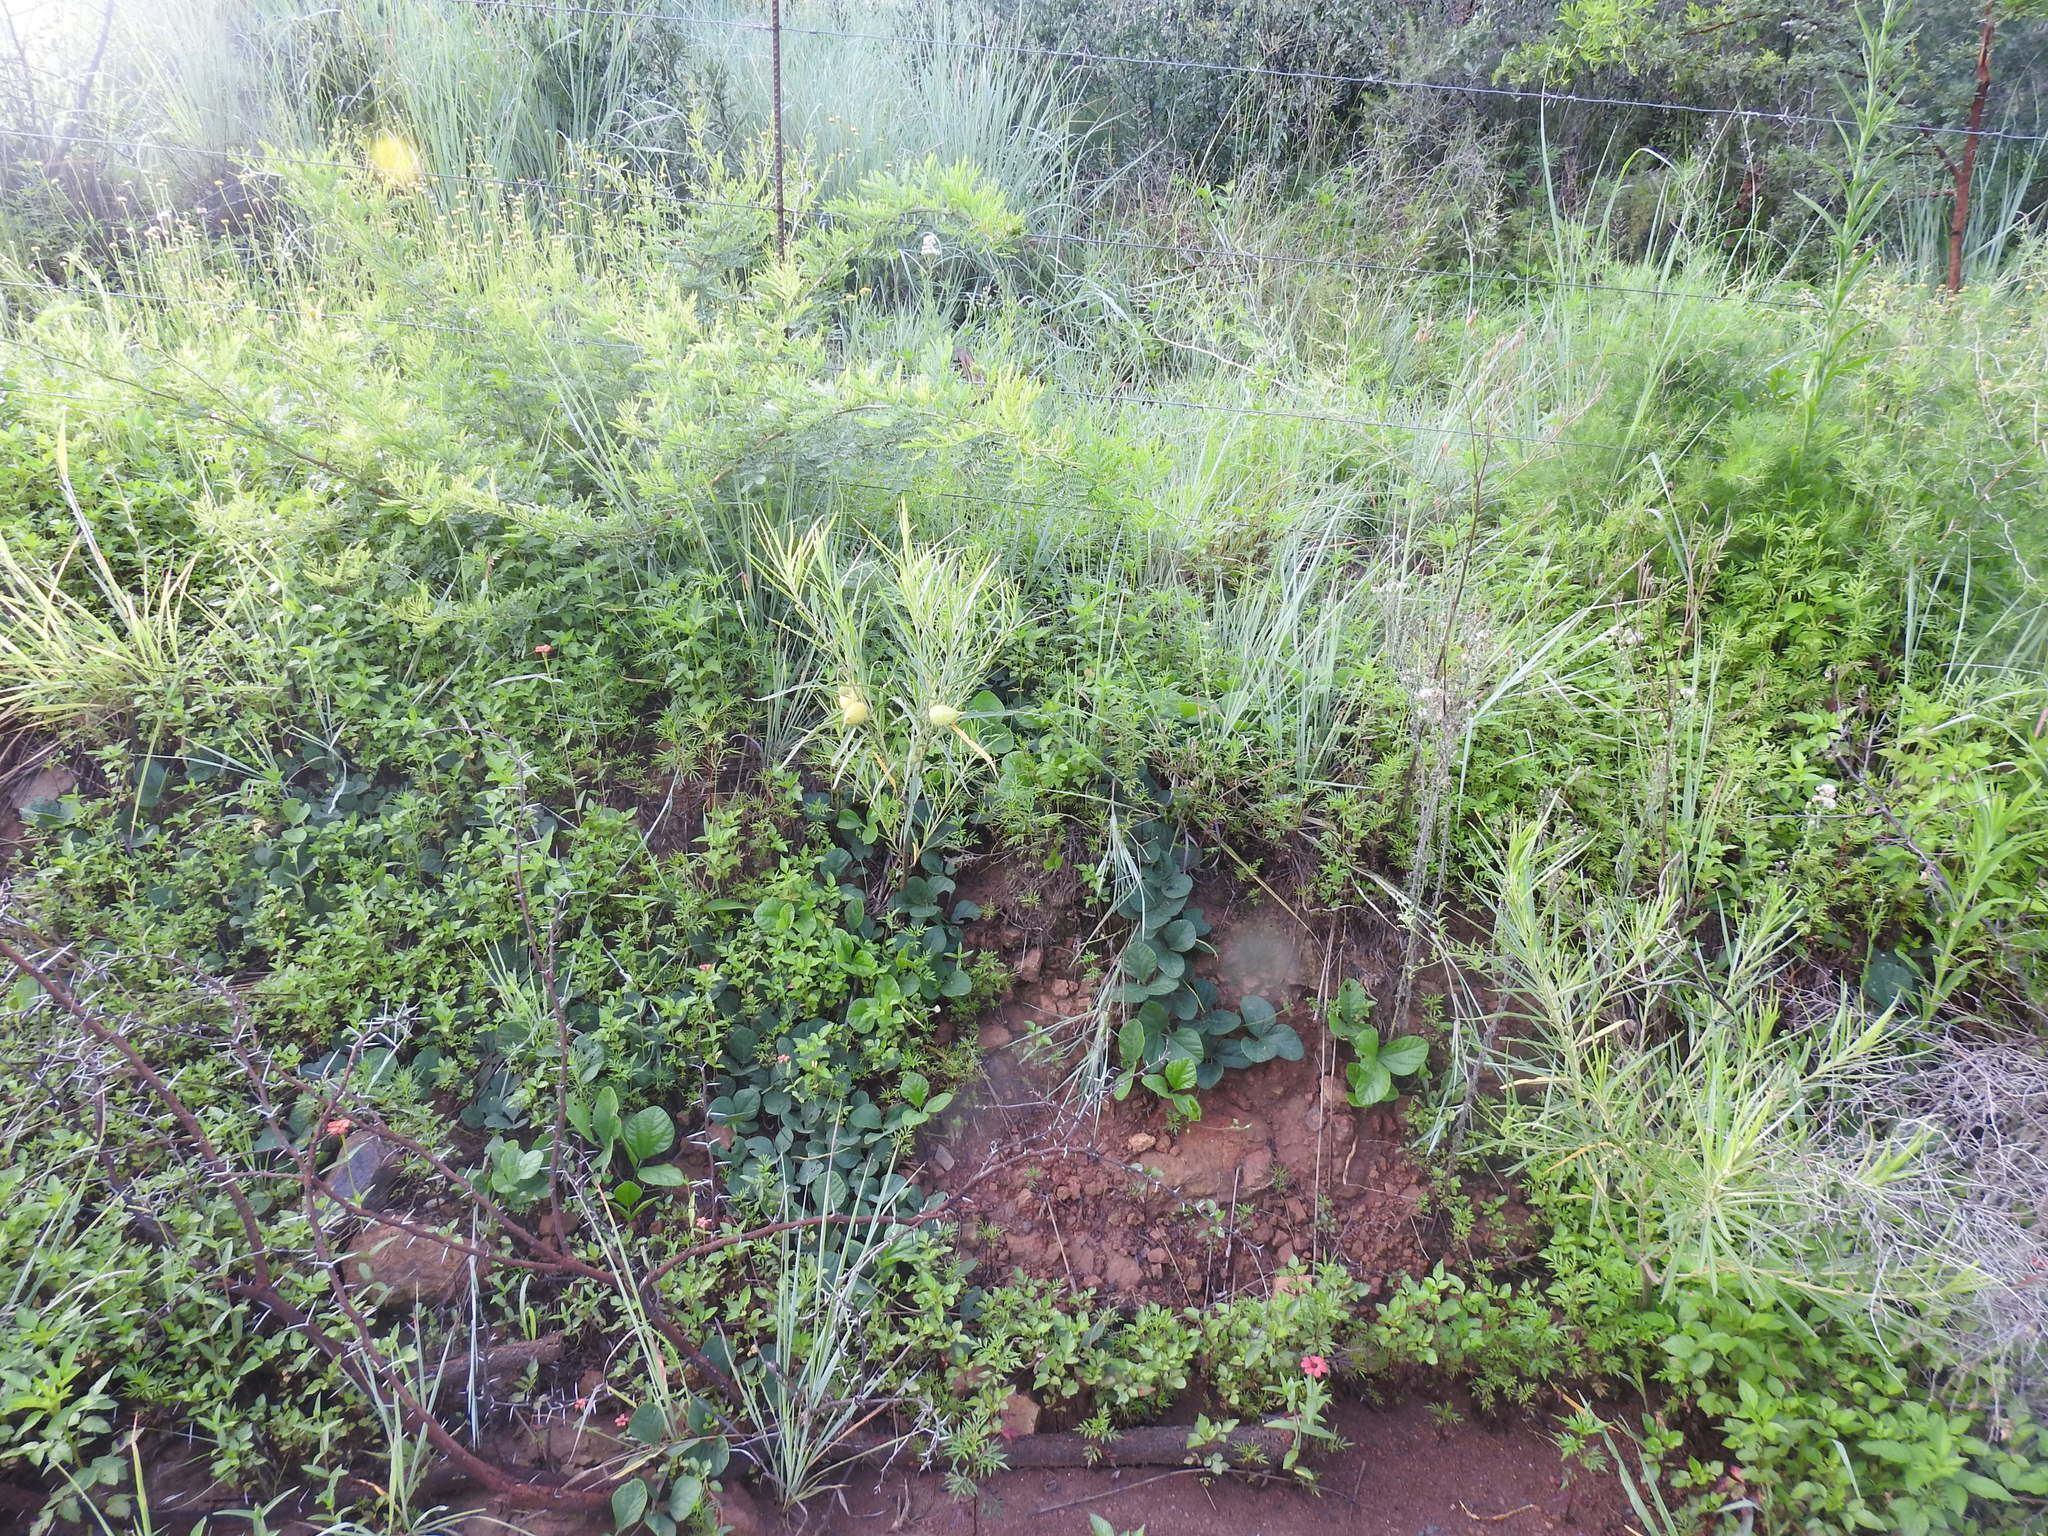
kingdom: Plantae
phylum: Tracheophyta
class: Magnoliopsida
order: Gentianales
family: Apocynaceae
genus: Gomphocarpus
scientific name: Gomphocarpus fruticosus
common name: Milkweed
